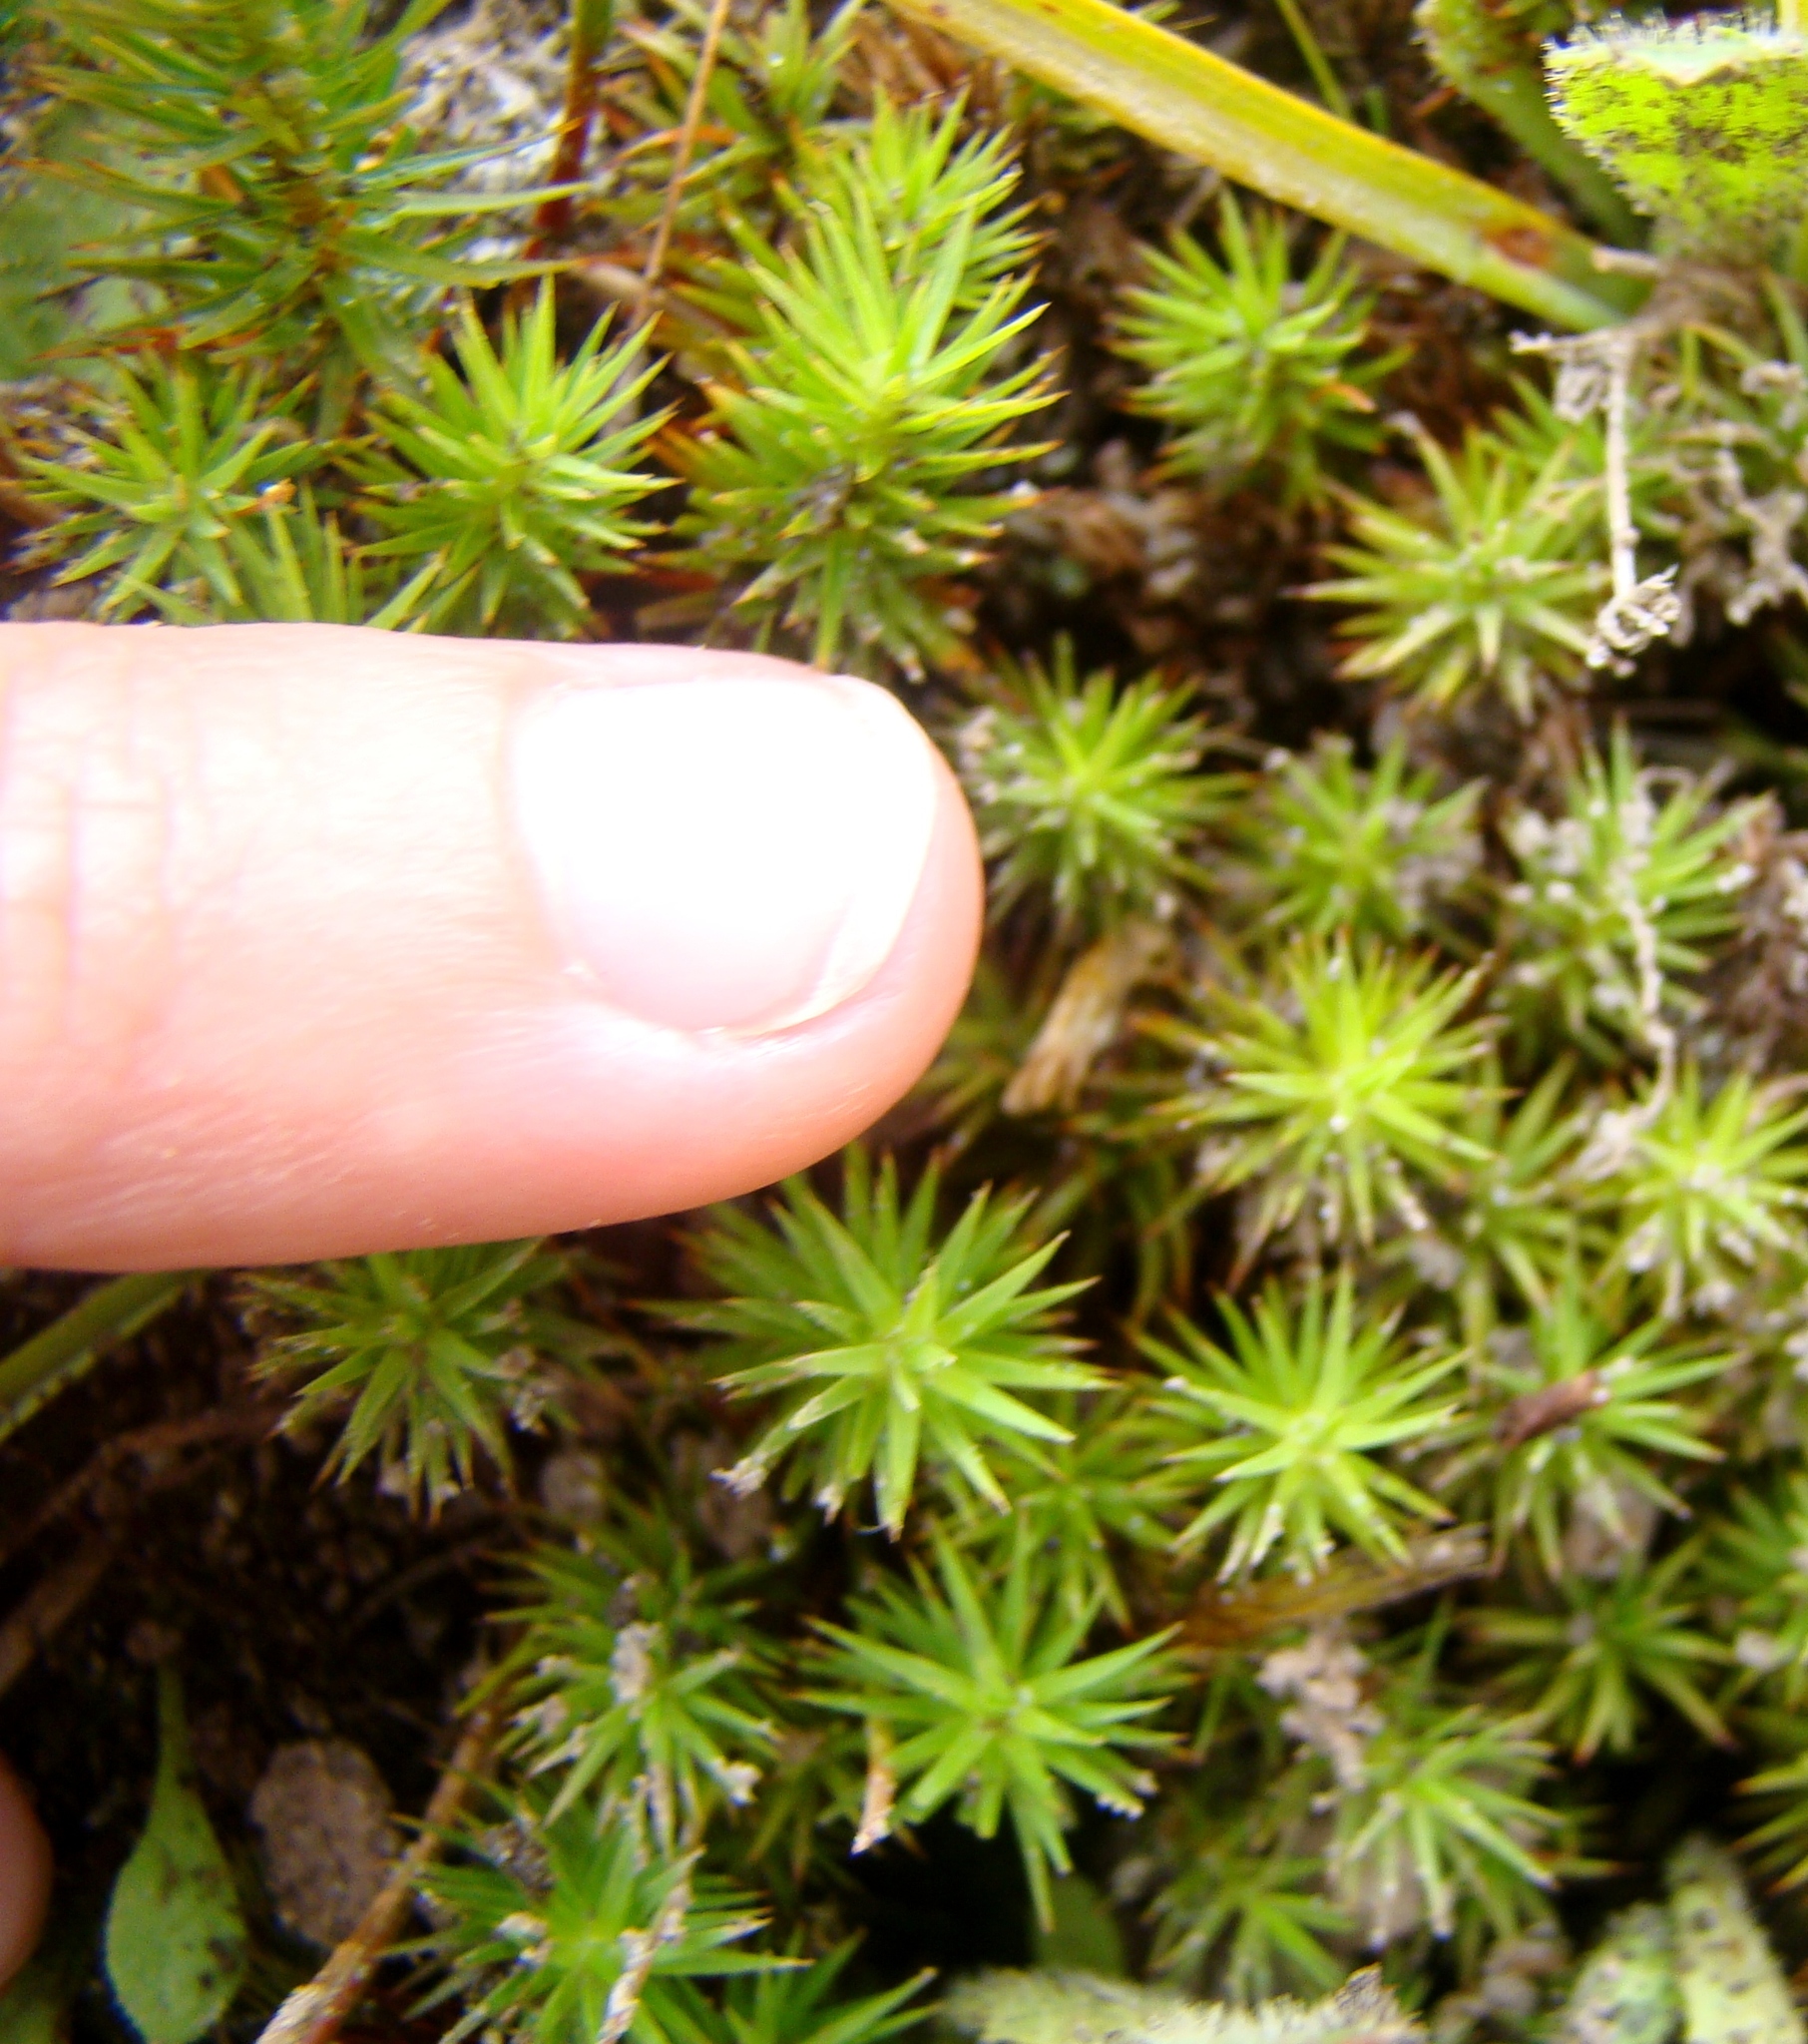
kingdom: Plantae
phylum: Bryophyta
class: Polytrichopsida
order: Polytrichales
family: Polytrichaceae
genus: Polytrichum
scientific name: Polytrichum juniperinum
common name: Juniper haircap moss
